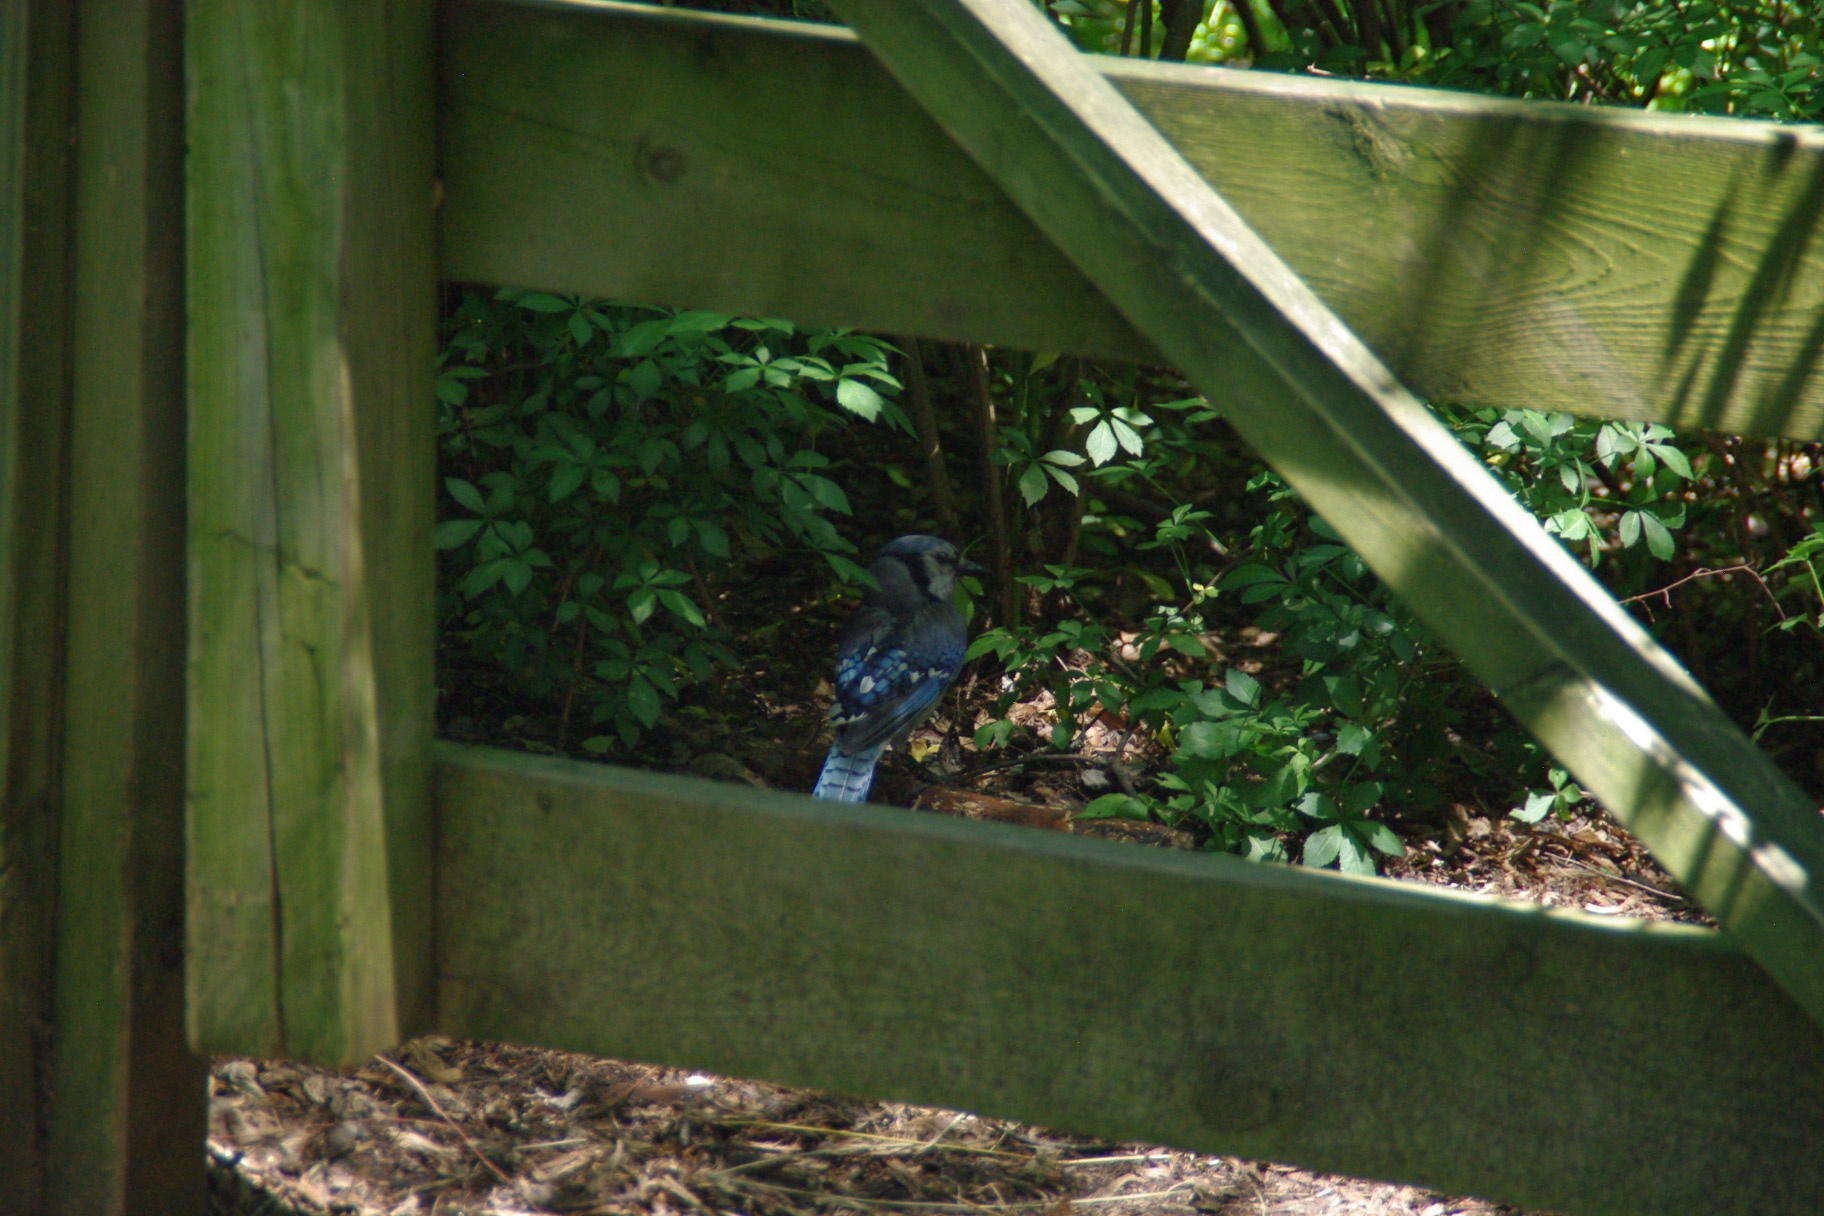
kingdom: Animalia
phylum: Chordata
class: Aves
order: Passeriformes
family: Corvidae
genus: Cyanocitta
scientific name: Cyanocitta cristata
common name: Blue jay
